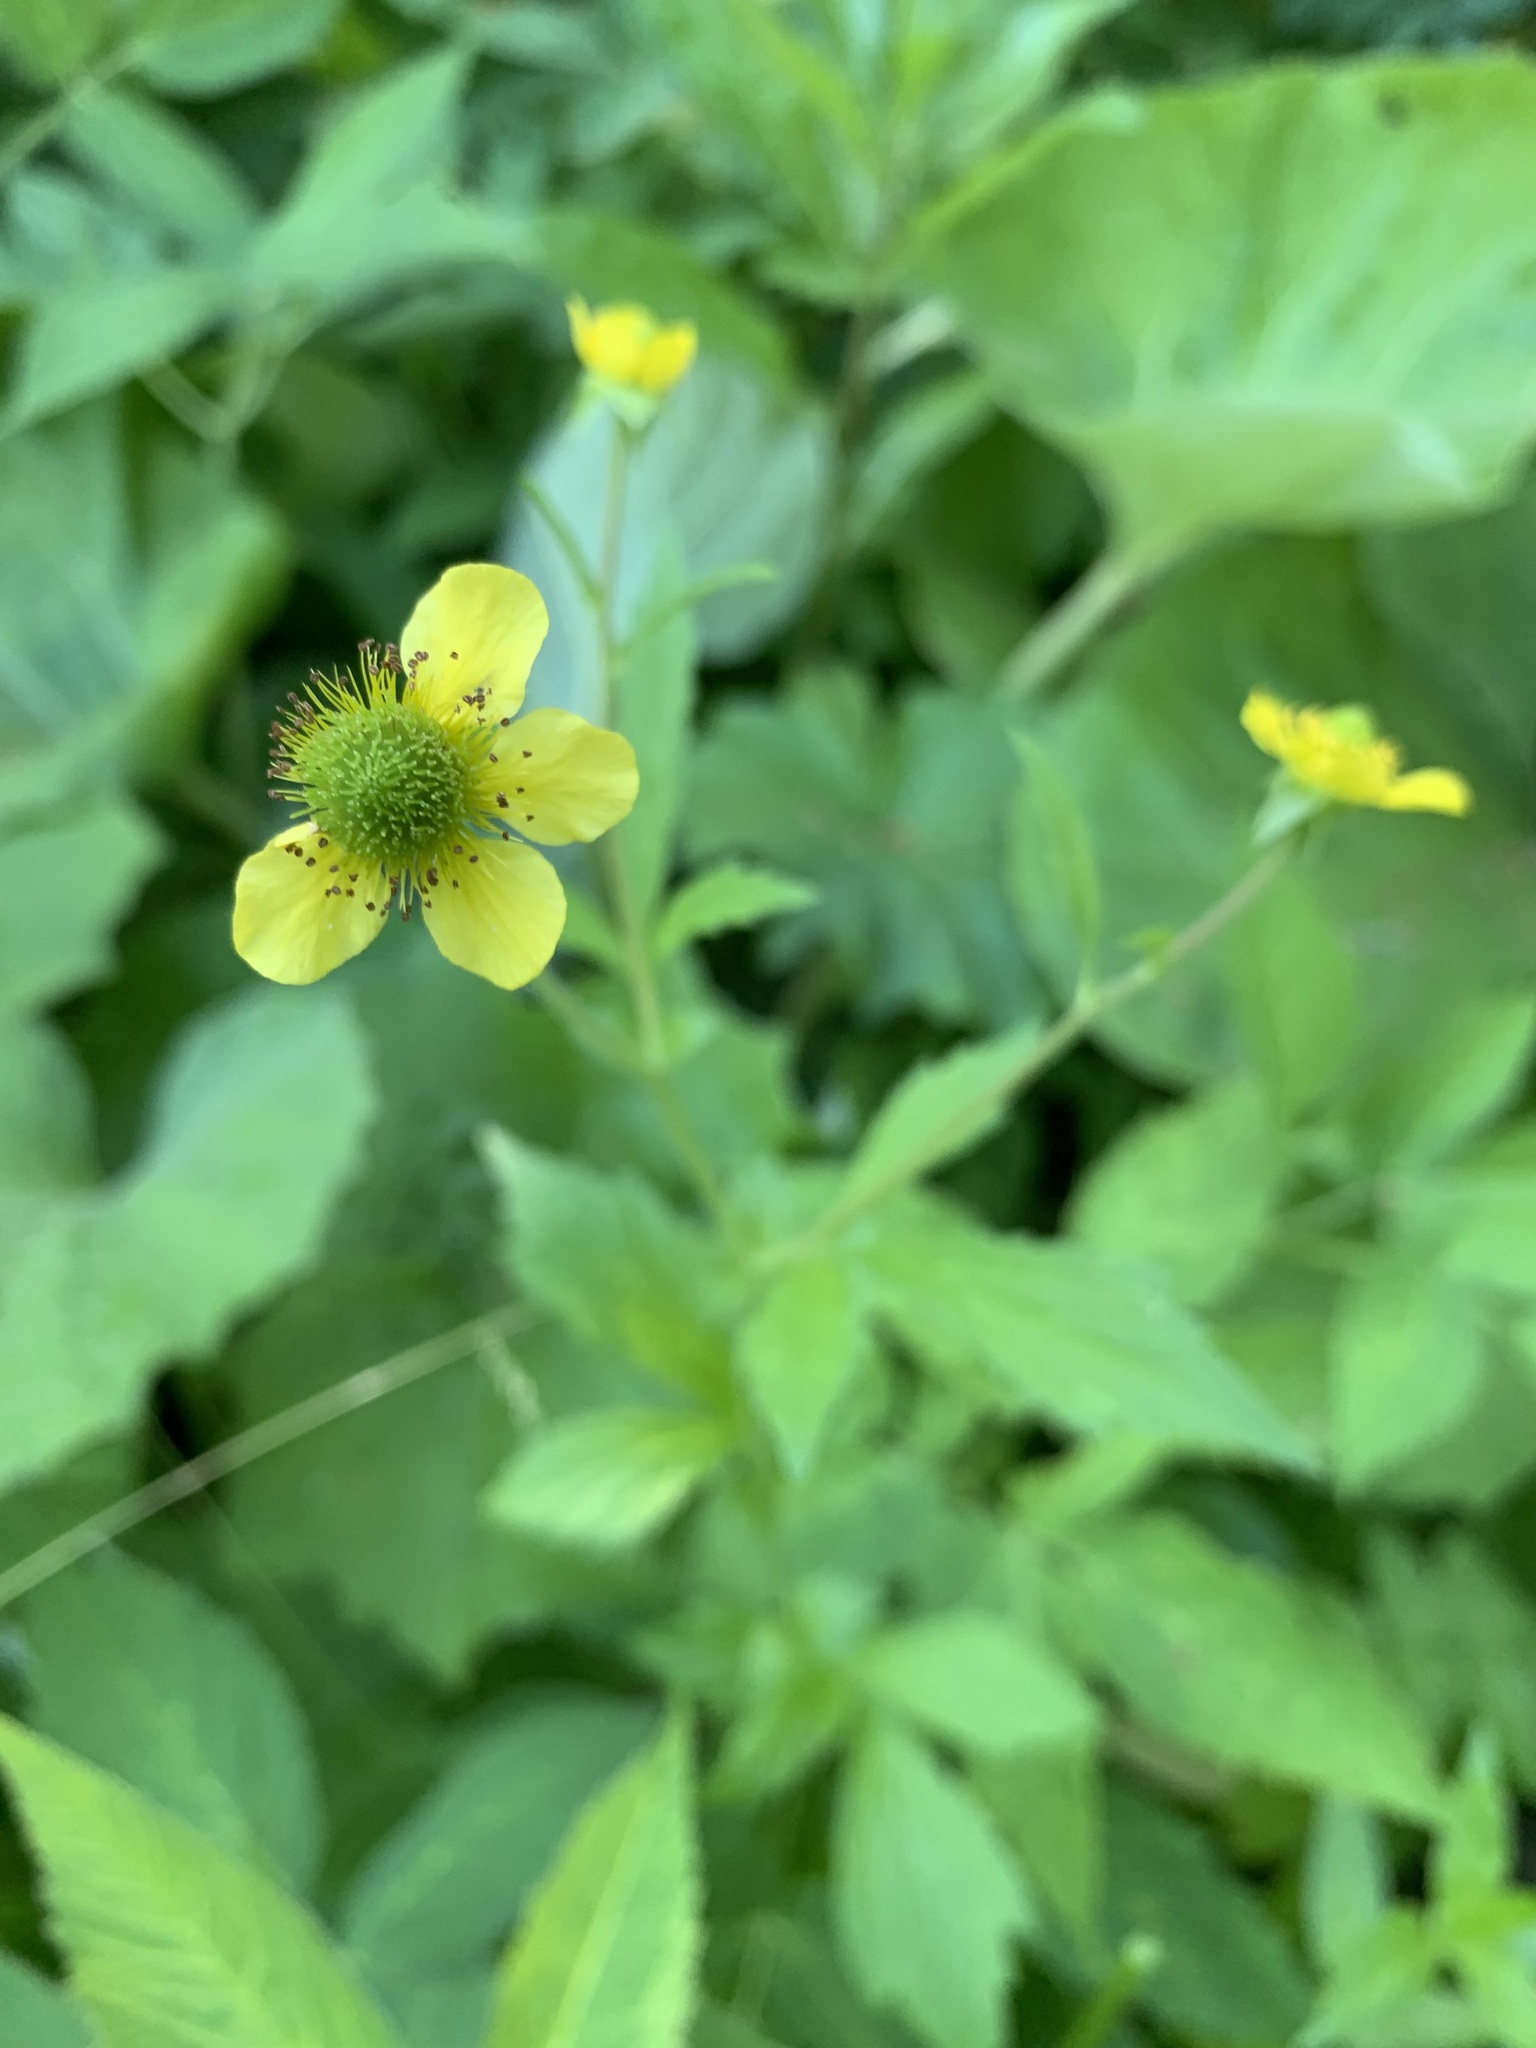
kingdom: Plantae
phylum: Tracheophyta
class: Magnoliopsida
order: Rosales
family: Rosaceae
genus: Geum
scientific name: Geum aleppicum
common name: Yellow avens
